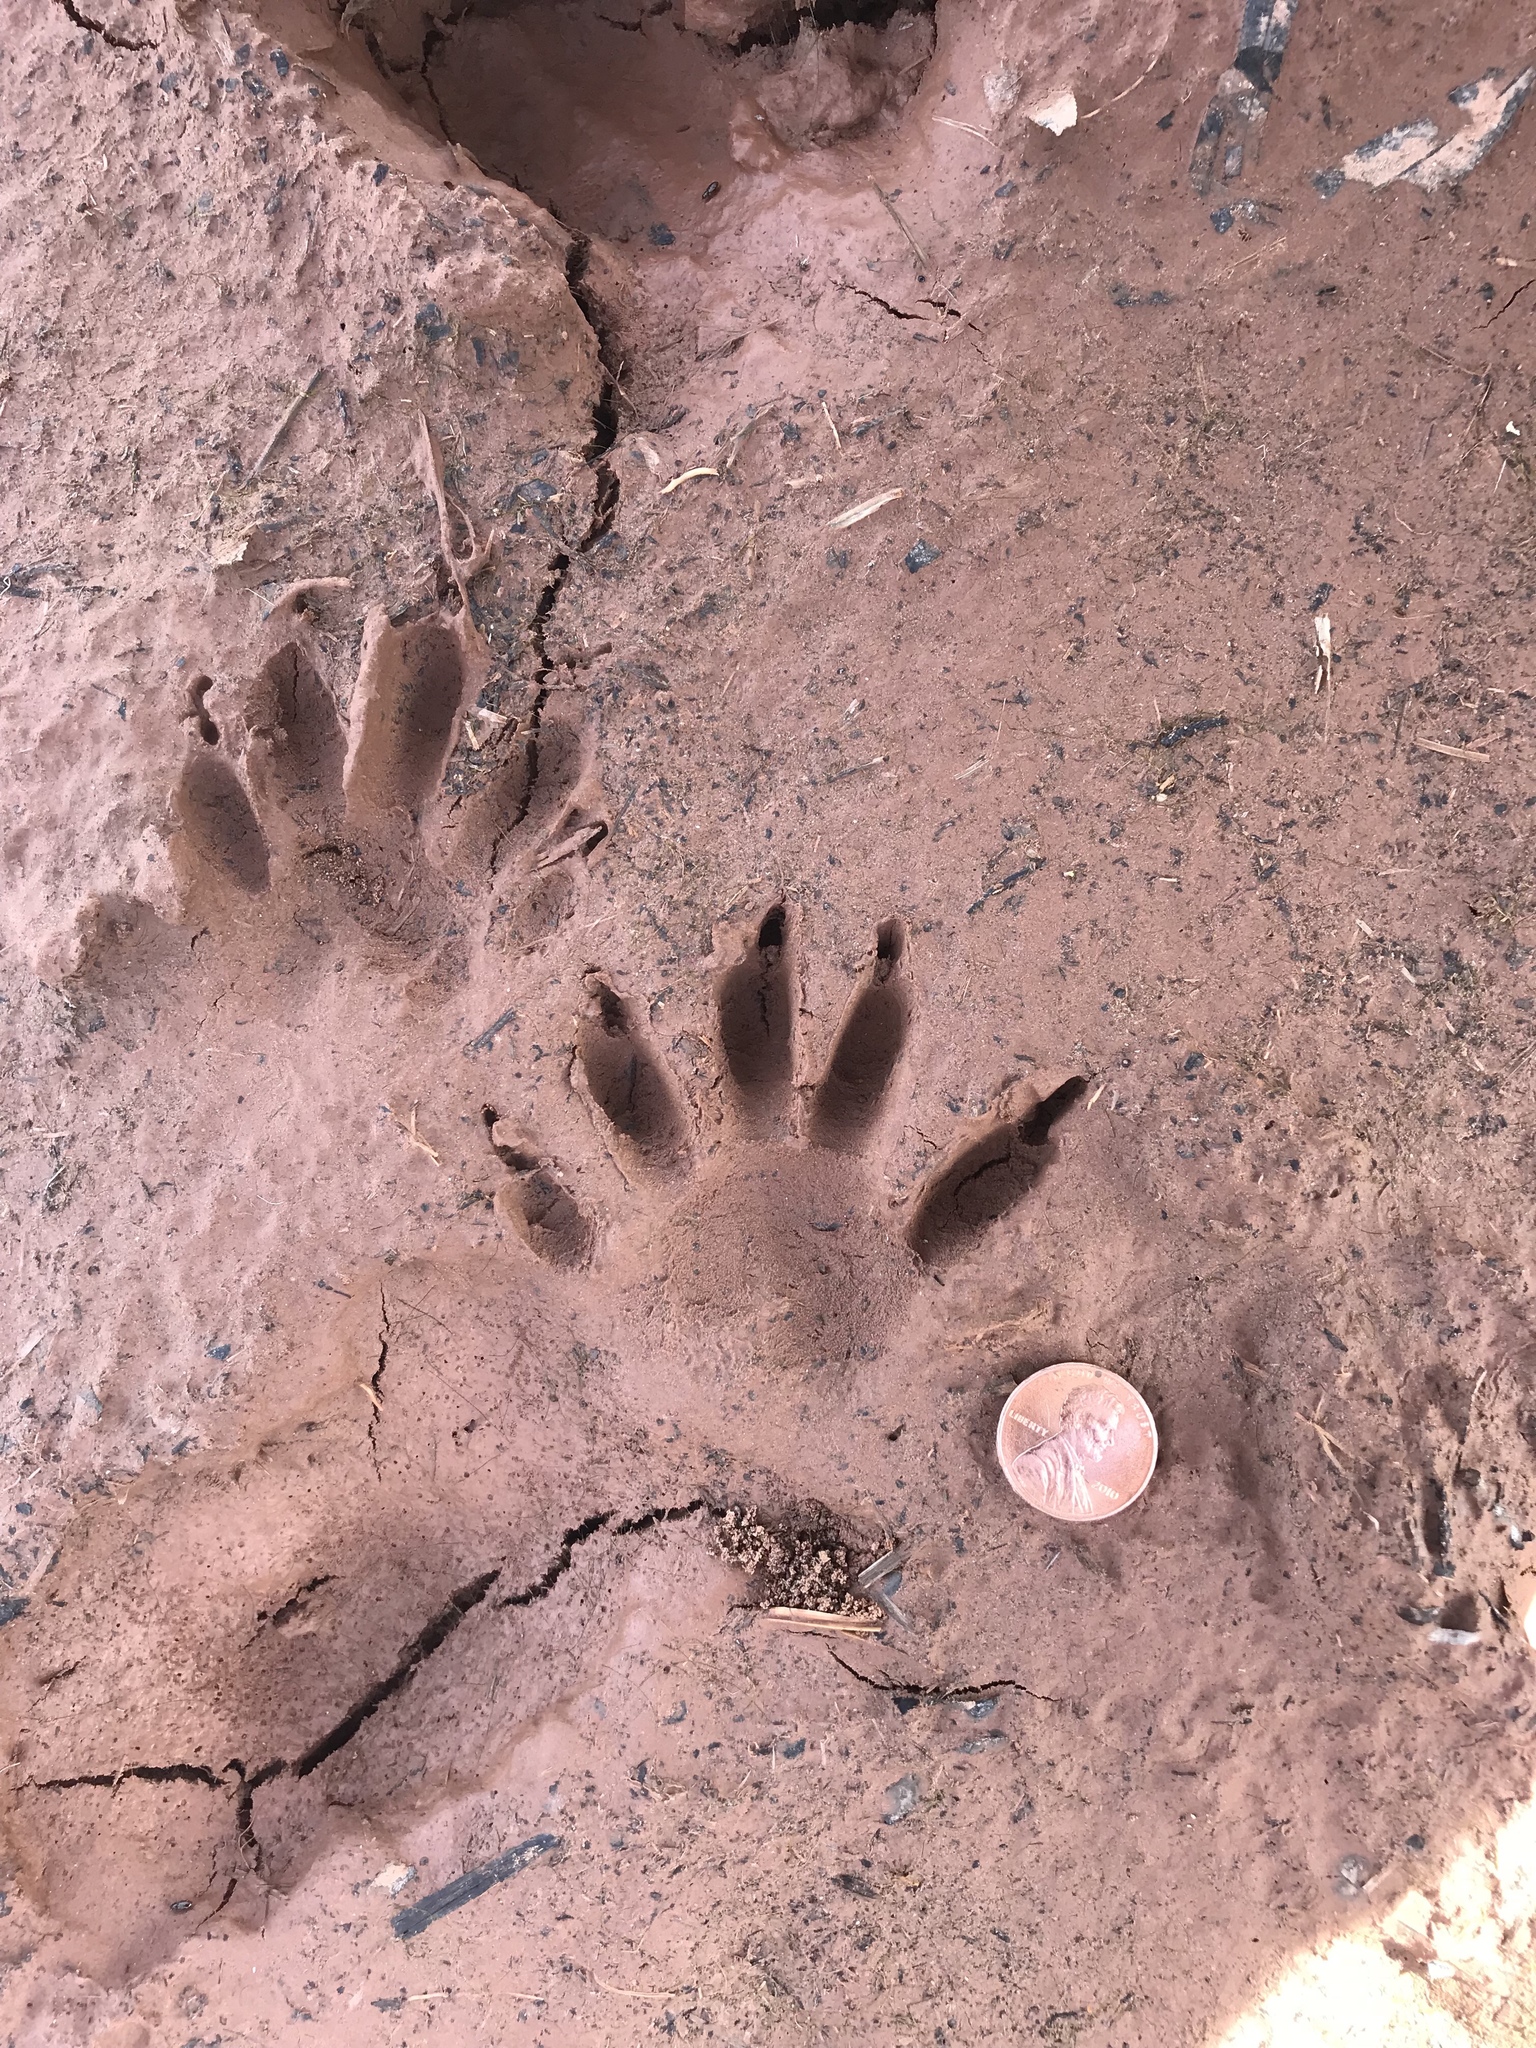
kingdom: Animalia
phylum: Chordata
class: Mammalia
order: Carnivora
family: Procyonidae
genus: Procyon
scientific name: Procyon lotor
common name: Raccoon
